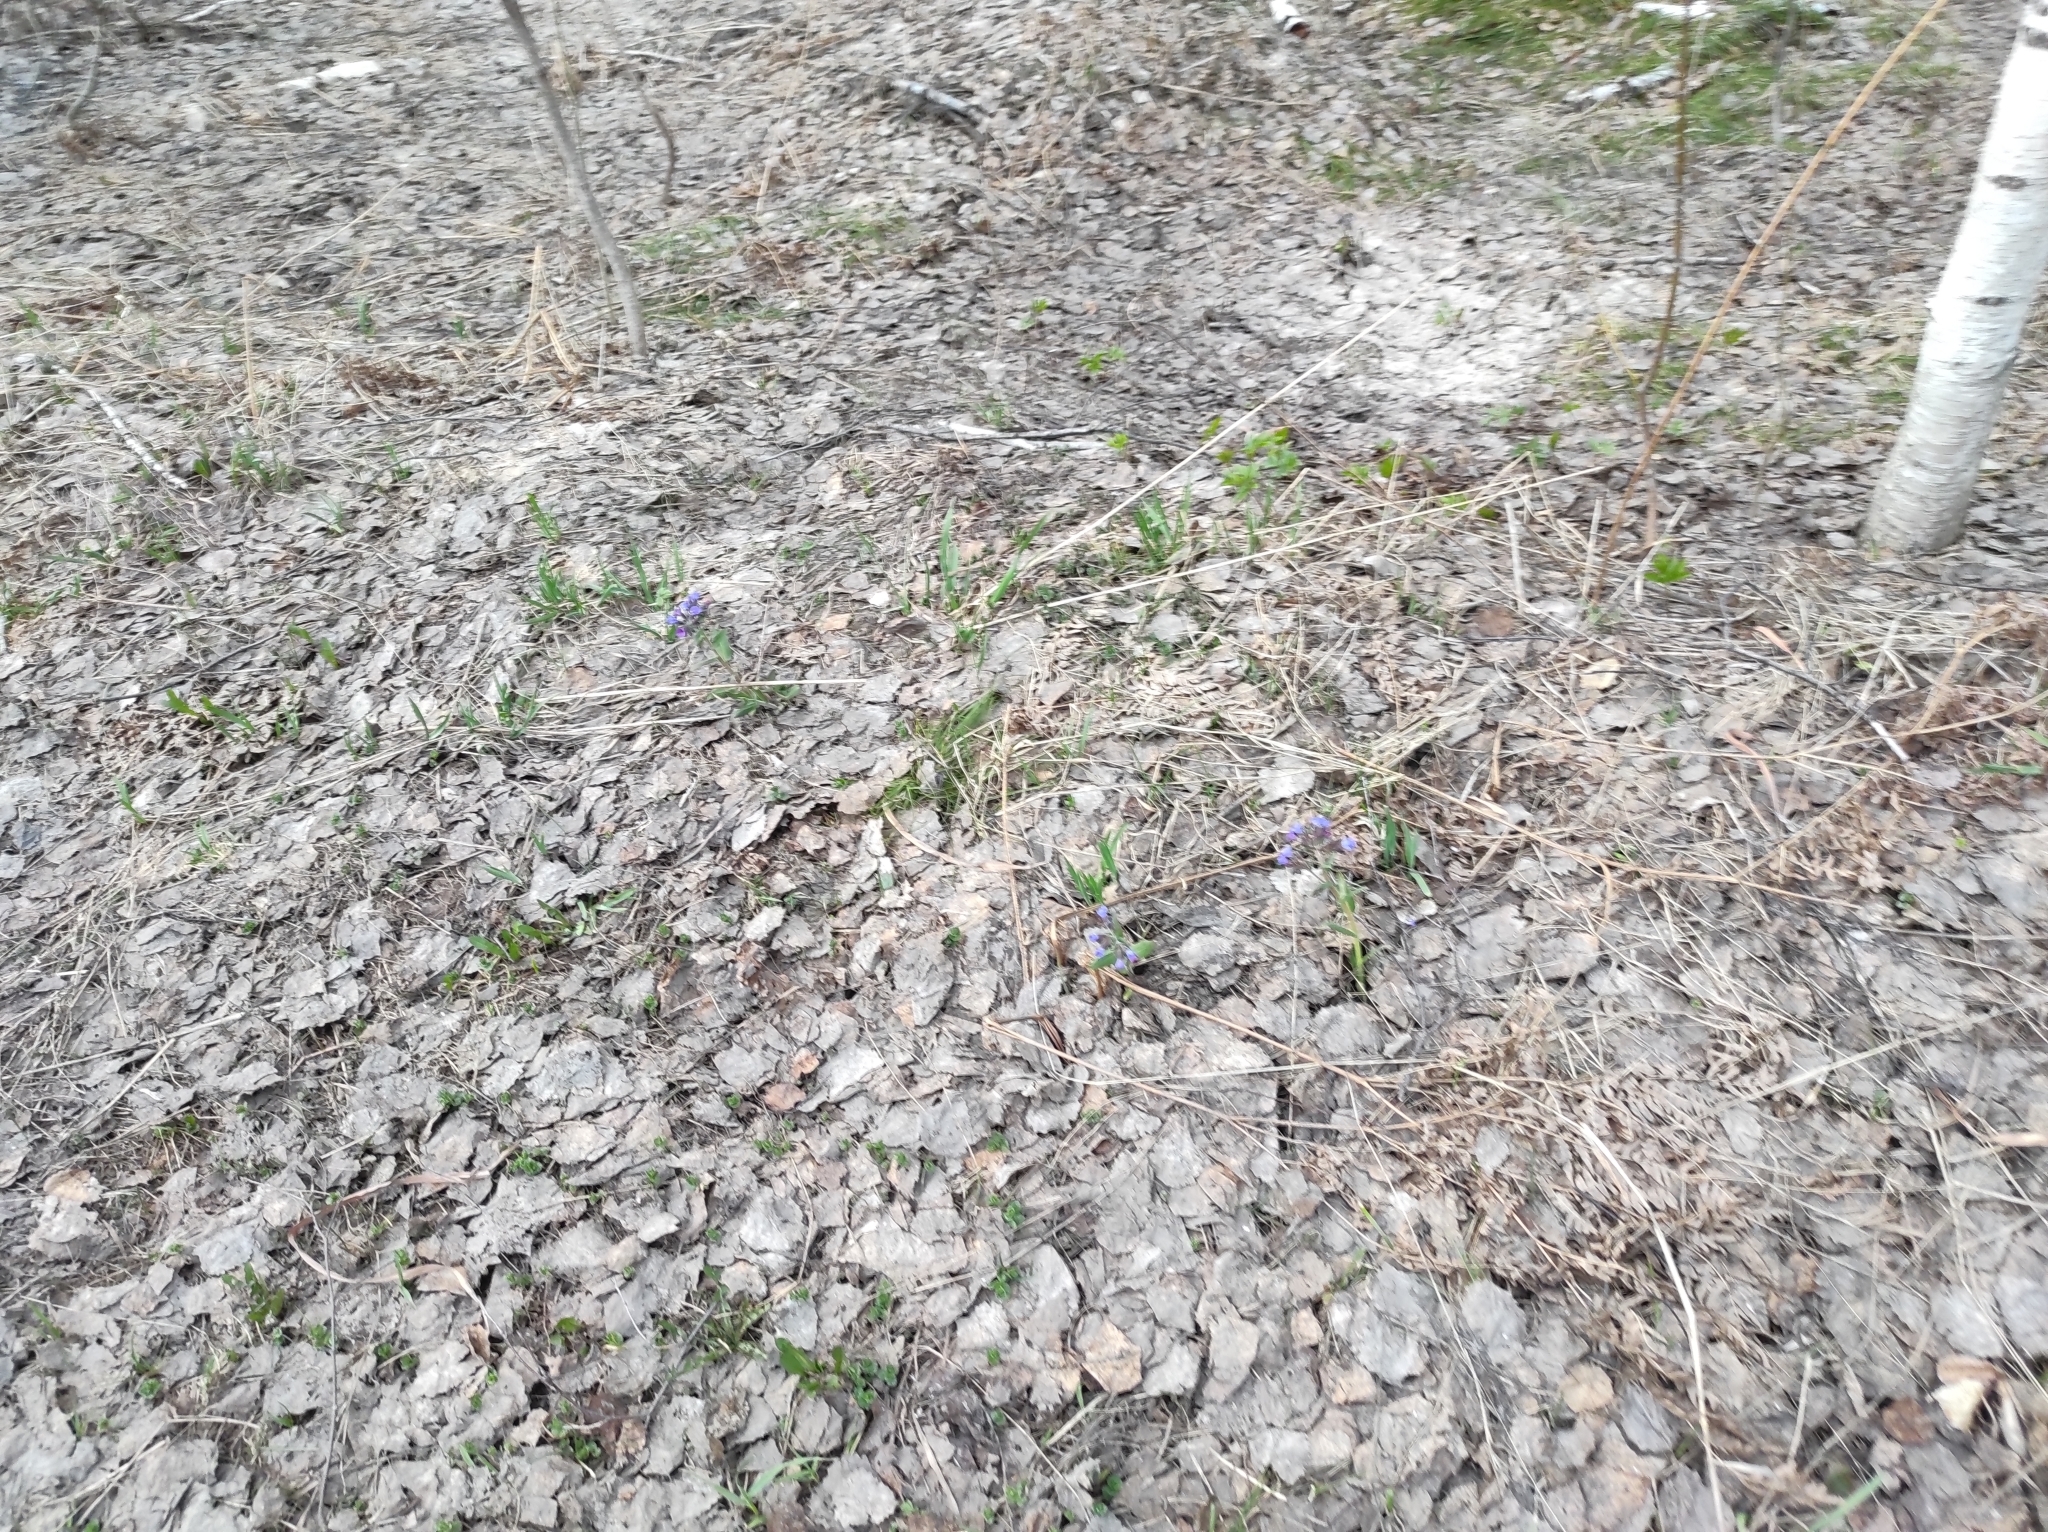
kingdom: Plantae
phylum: Tracheophyta
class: Magnoliopsida
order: Boraginales
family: Boraginaceae
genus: Pulmonaria
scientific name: Pulmonaria mollis
